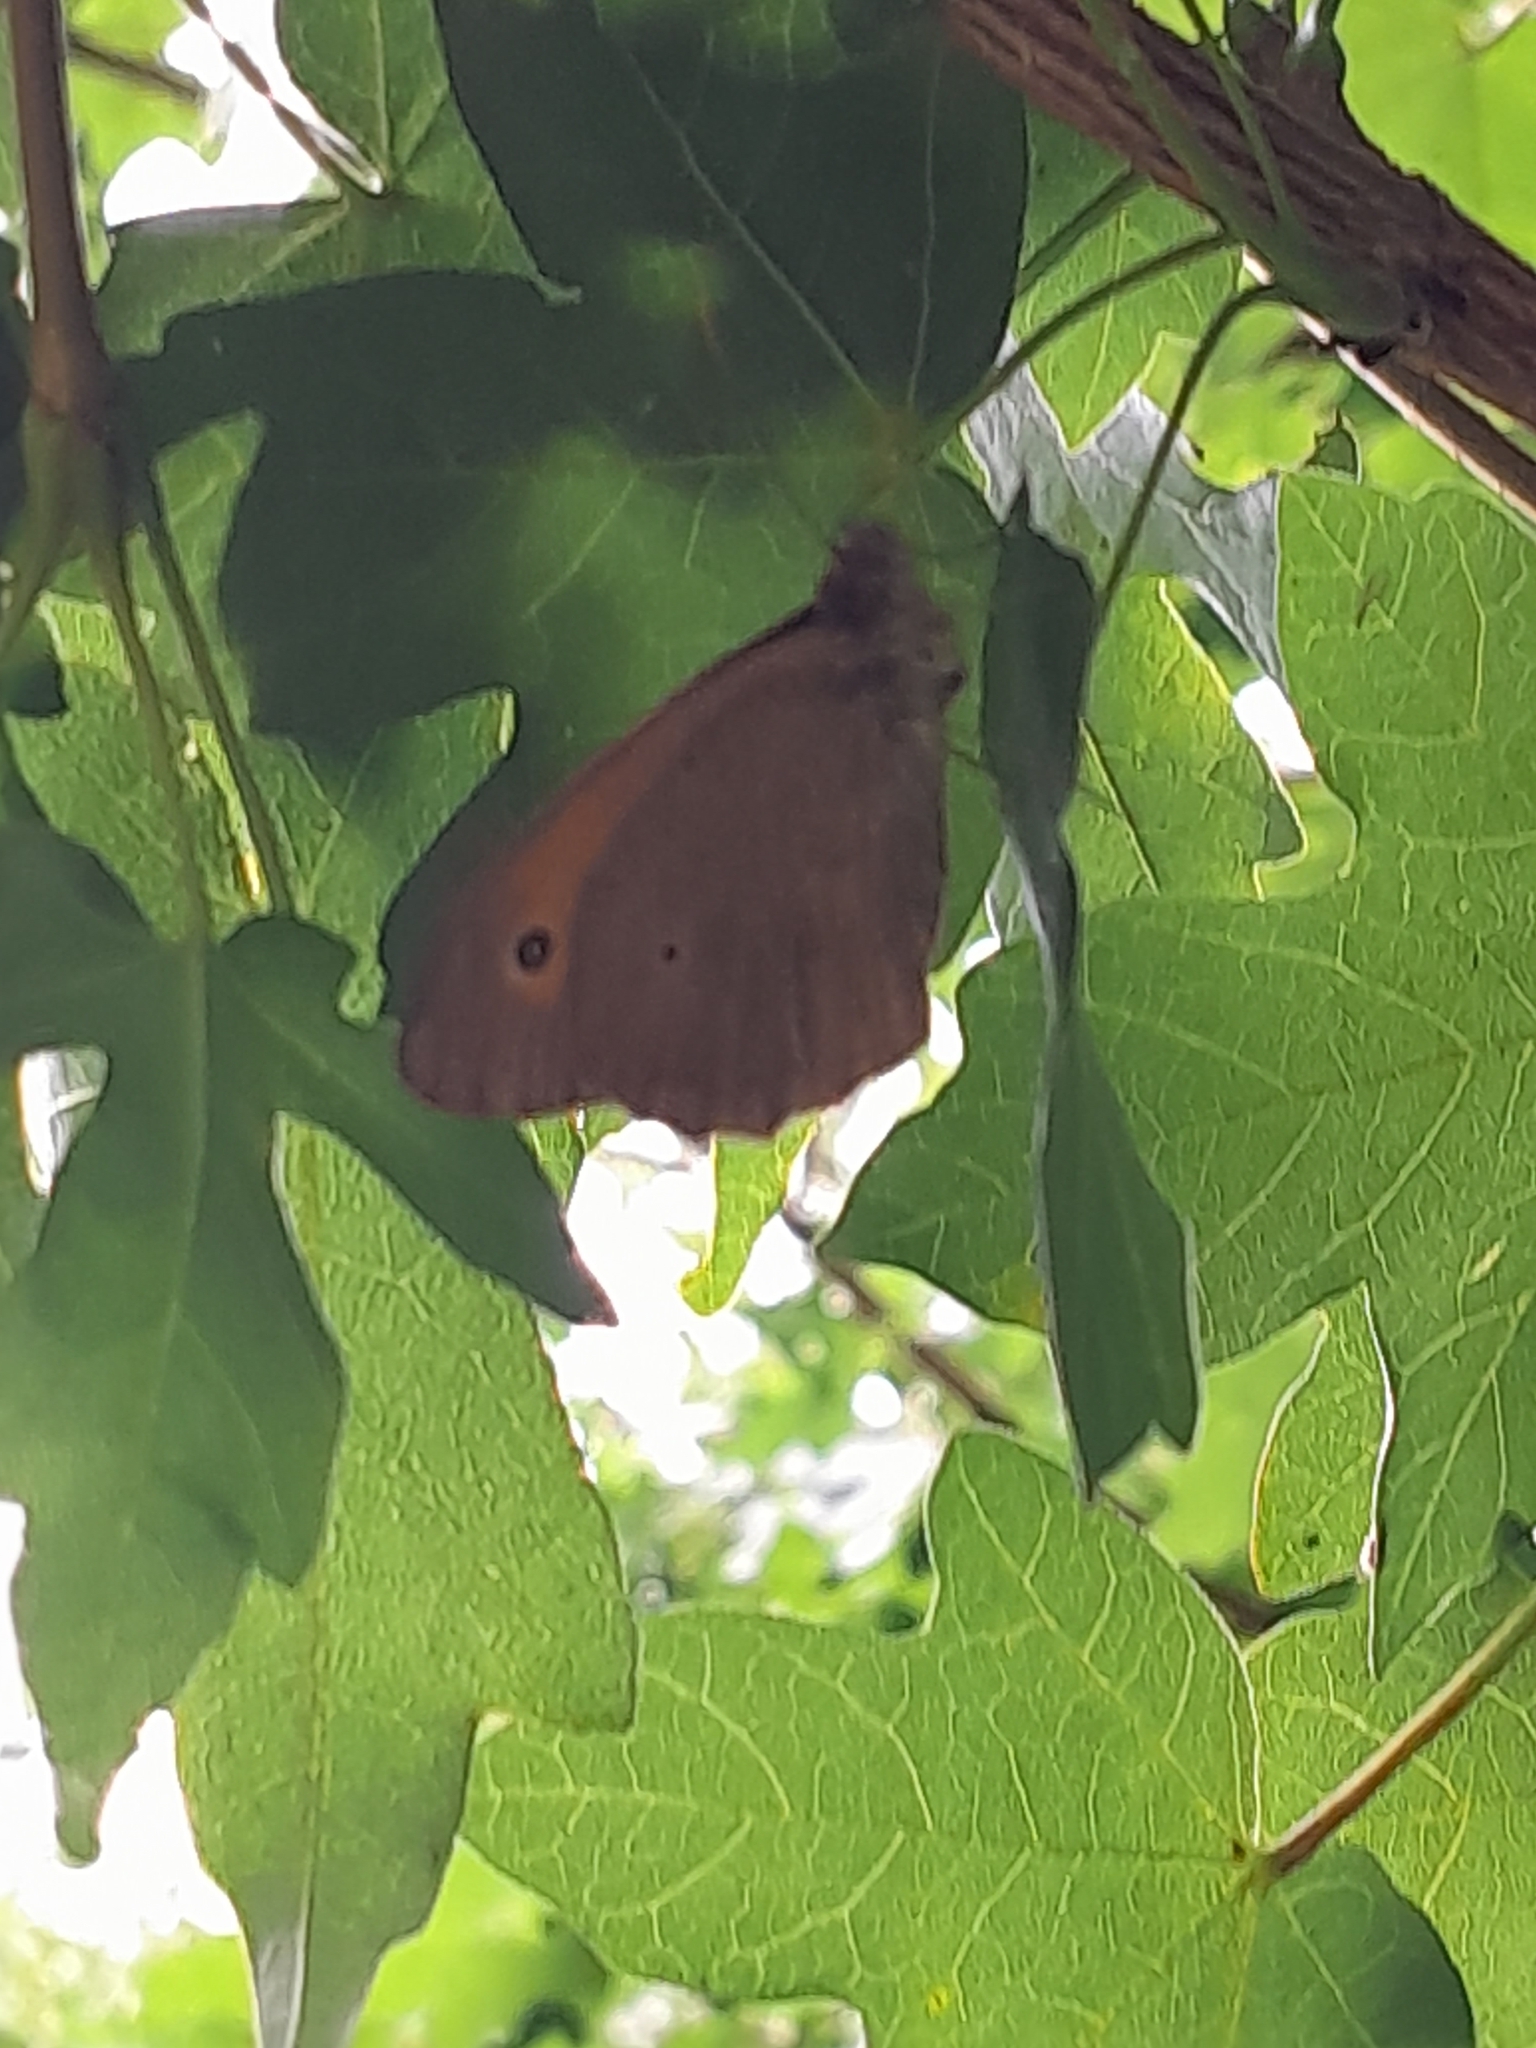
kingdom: Animalia
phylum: Arthropoda
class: Insecta
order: Lepidoptera
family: Nymphalidae
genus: Maniola
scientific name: Maniola jurtina
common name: Meadow brown
